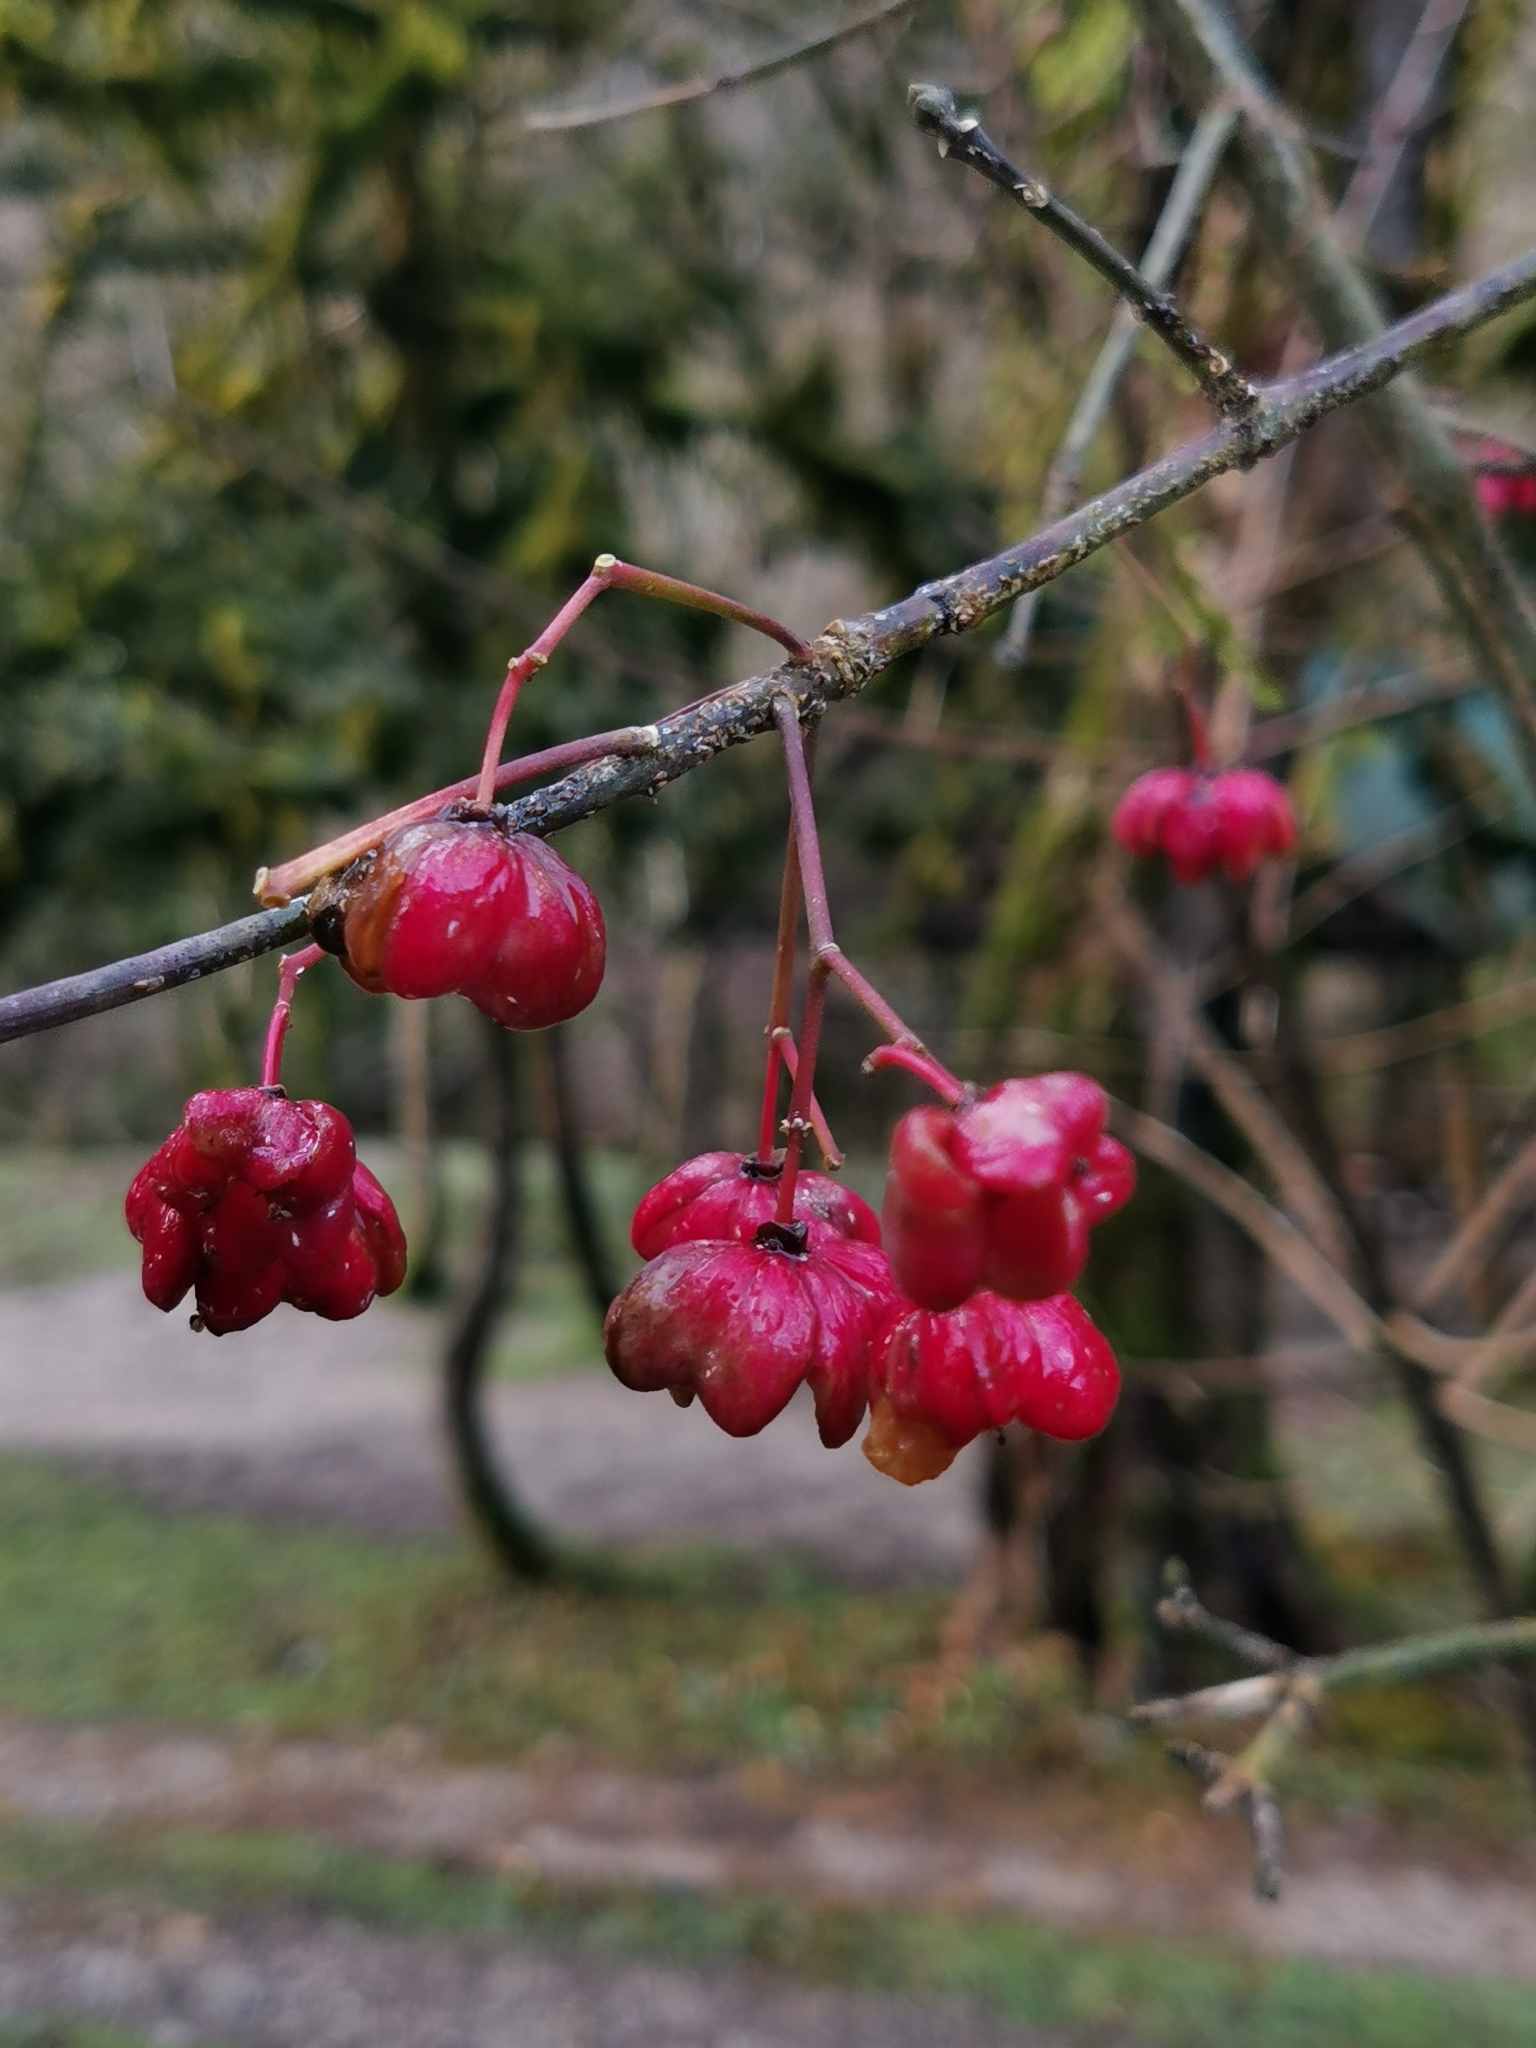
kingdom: Plantae
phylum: Tracheophyta
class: Magnoliopsida
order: Celastrales
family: Celastraceae
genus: Euonymus
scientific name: Euonymus europaeus
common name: Spindle
